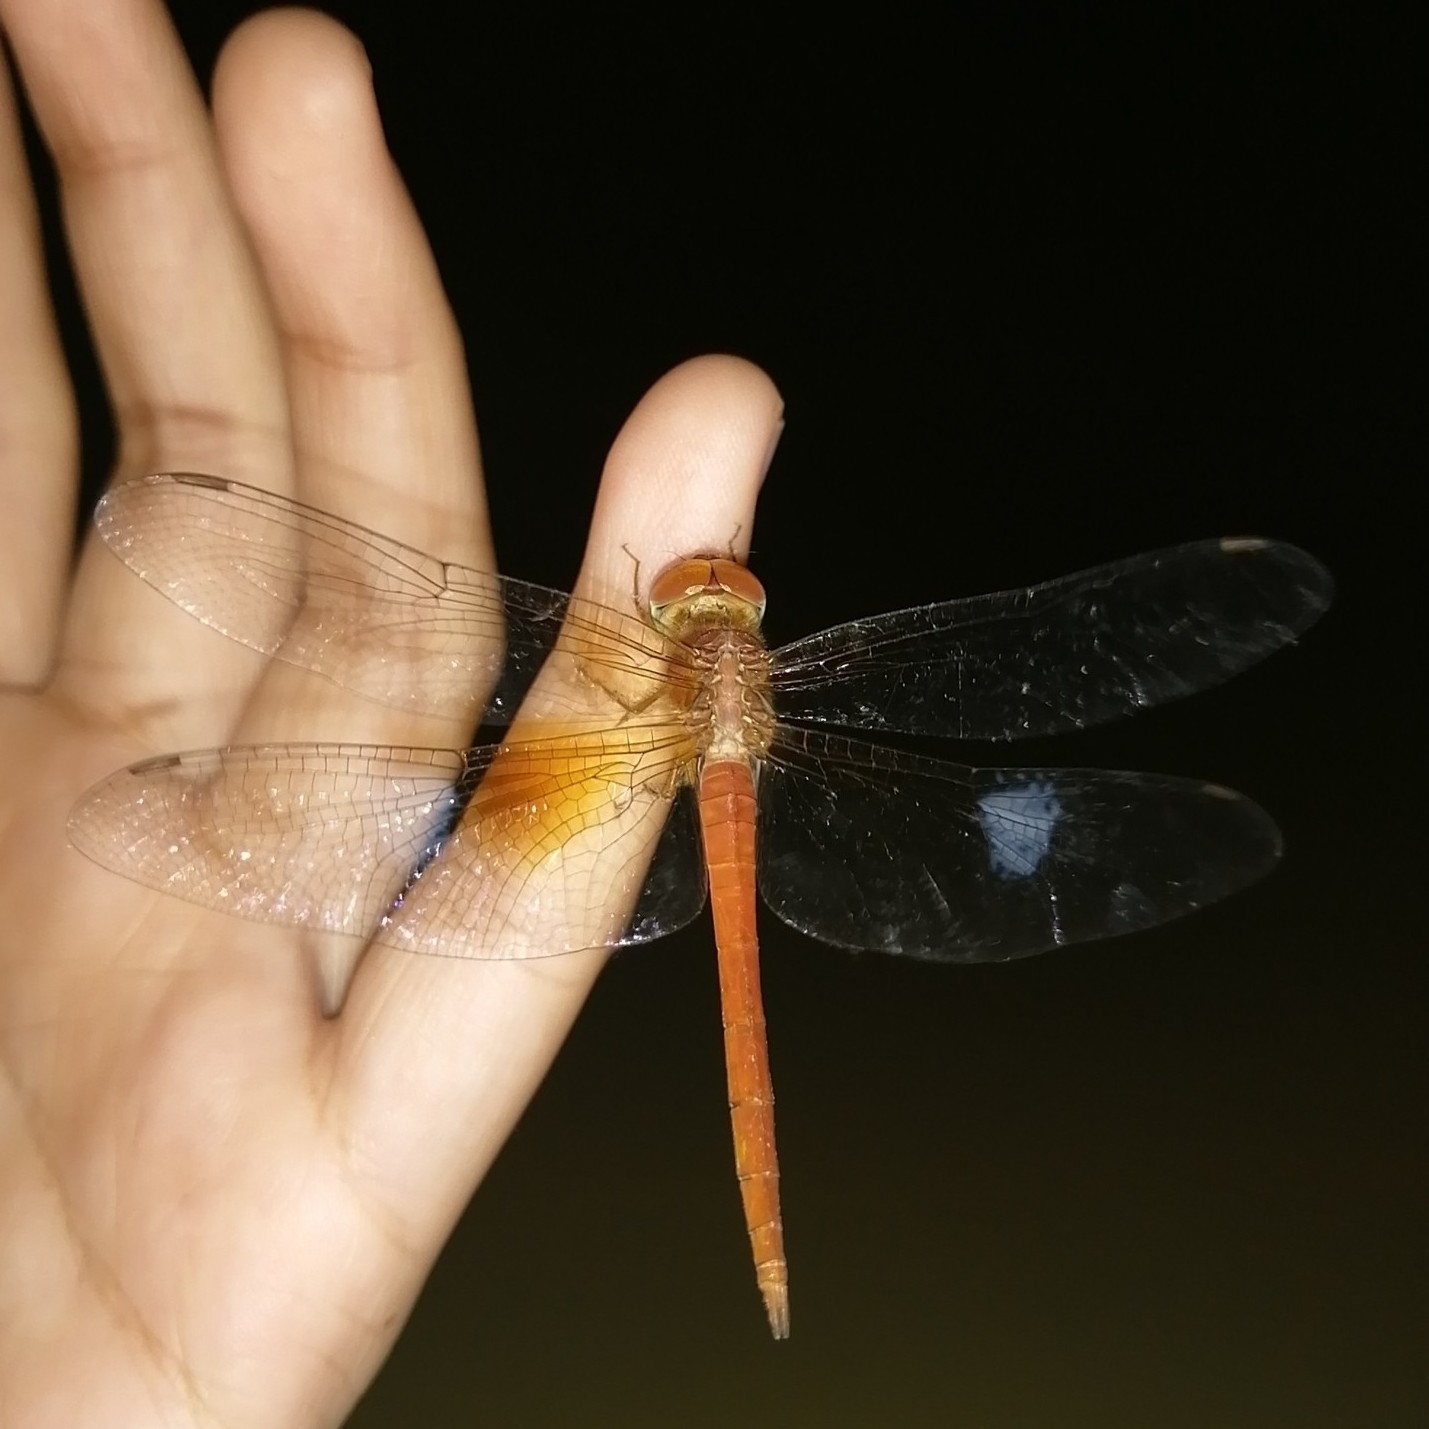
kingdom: Animalia
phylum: Arthropoda
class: Insecta
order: Odonata
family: Libellulidae
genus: Tholymis
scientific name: Tholymis tillarga
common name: Coral-tailed cloud wing
